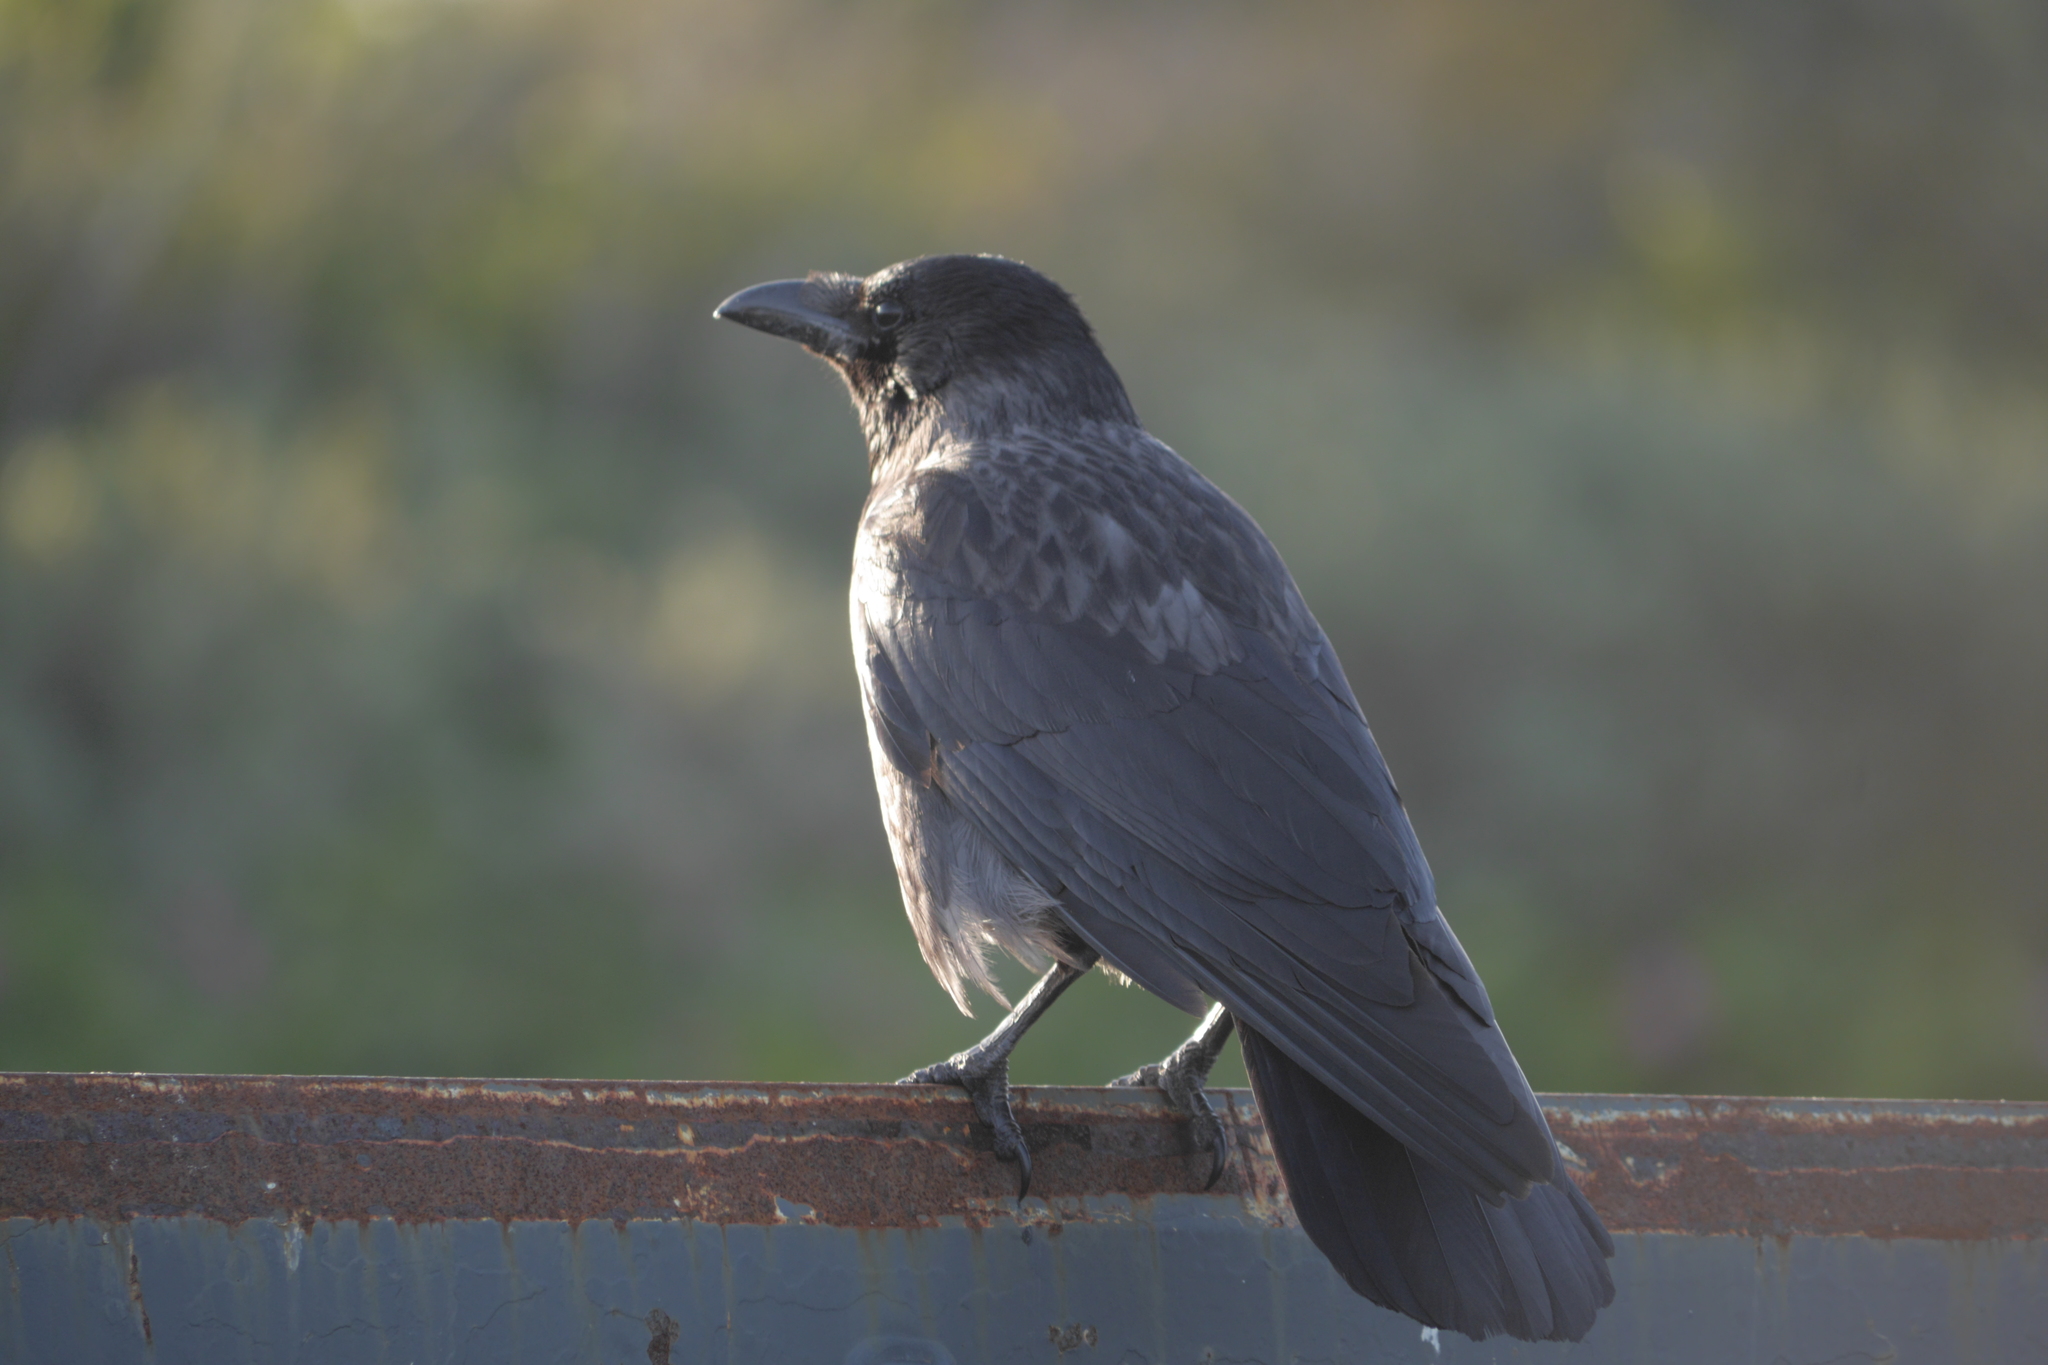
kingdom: Animalia
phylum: Chordata
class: Aves
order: Passeriformes
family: Corvidae
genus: Corvus
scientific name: Corvus
